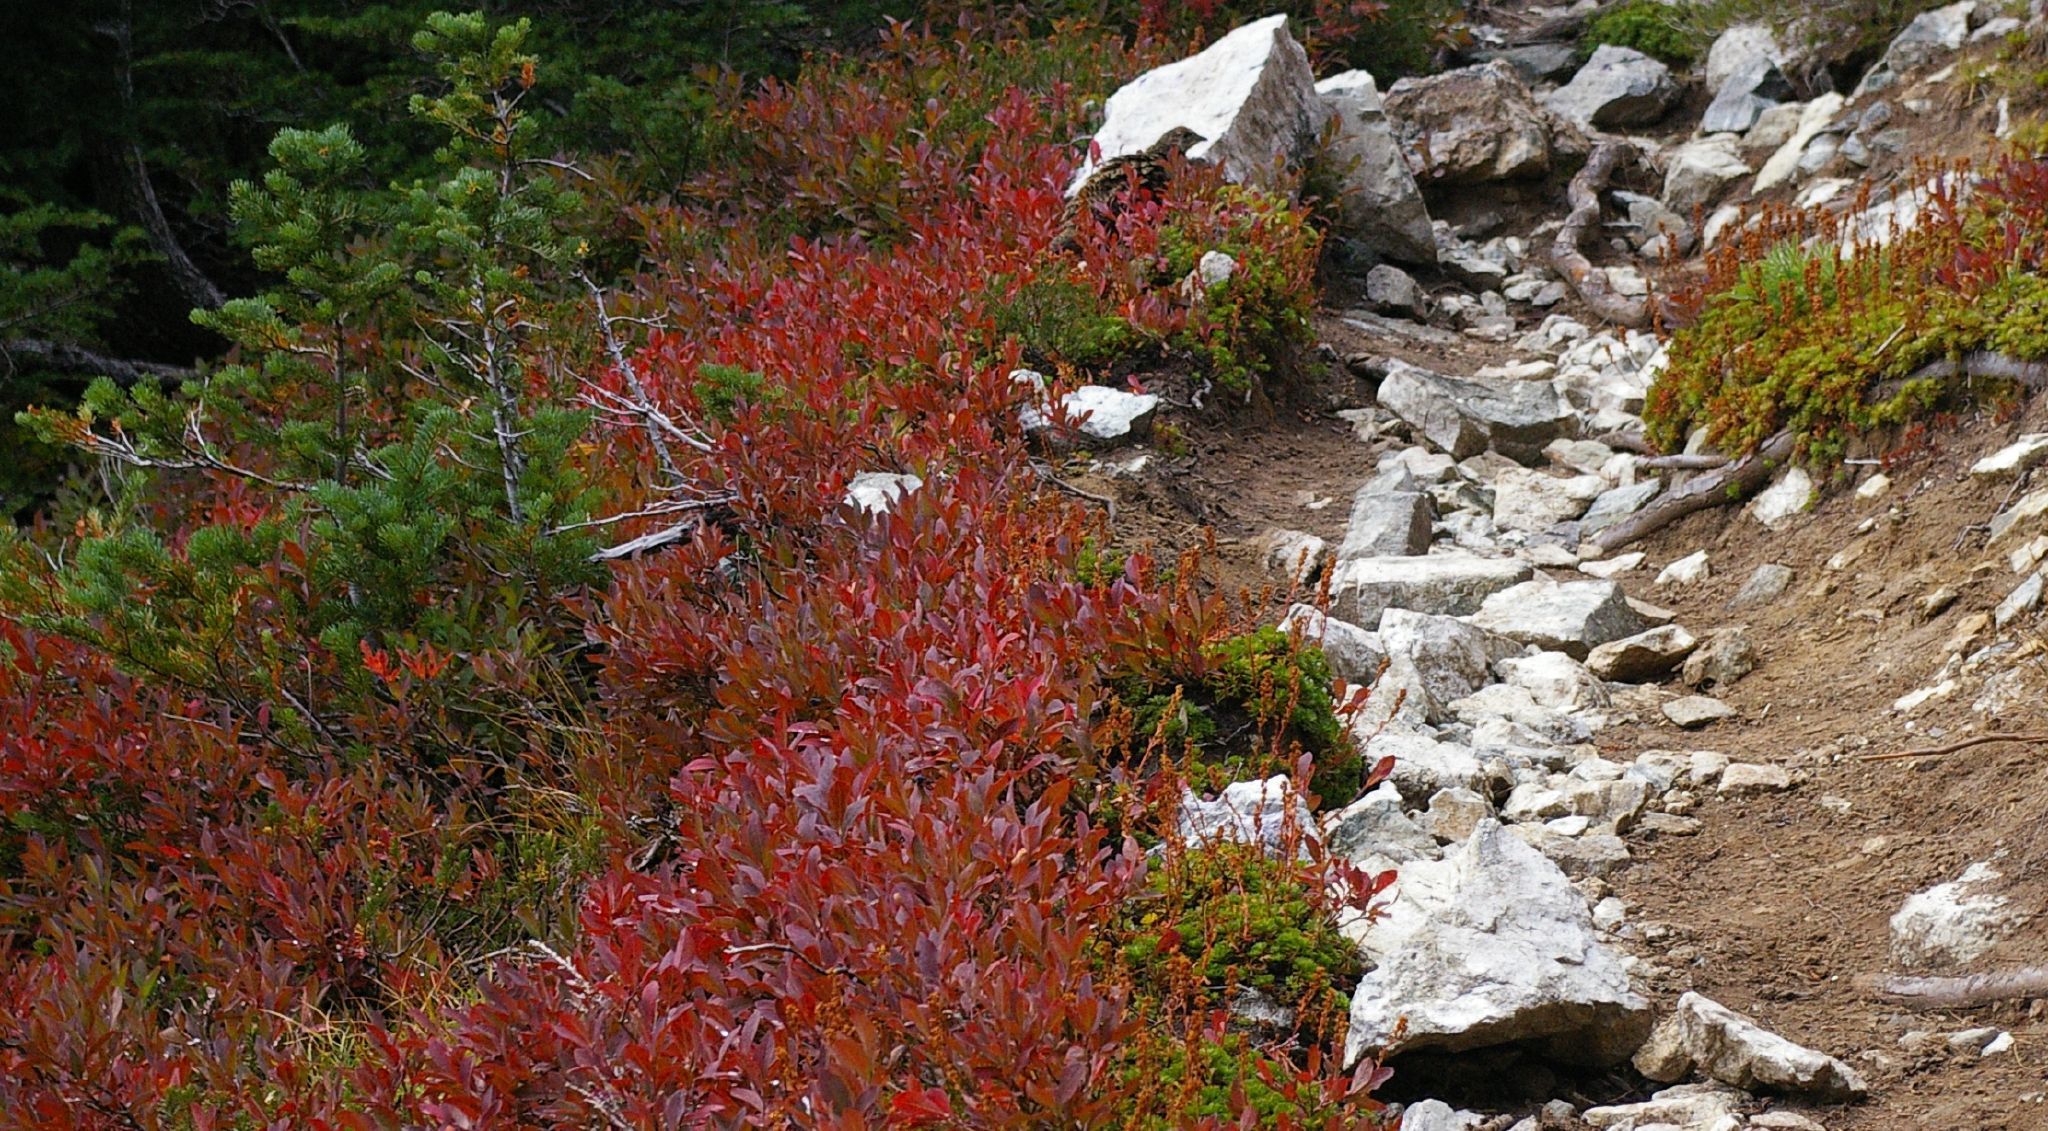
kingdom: Animalia
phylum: Chordata
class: Aves
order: Galliformes
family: Phasianidae
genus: Dendragapus
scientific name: Dendragapus fuliginosus
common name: Sooty grouse
